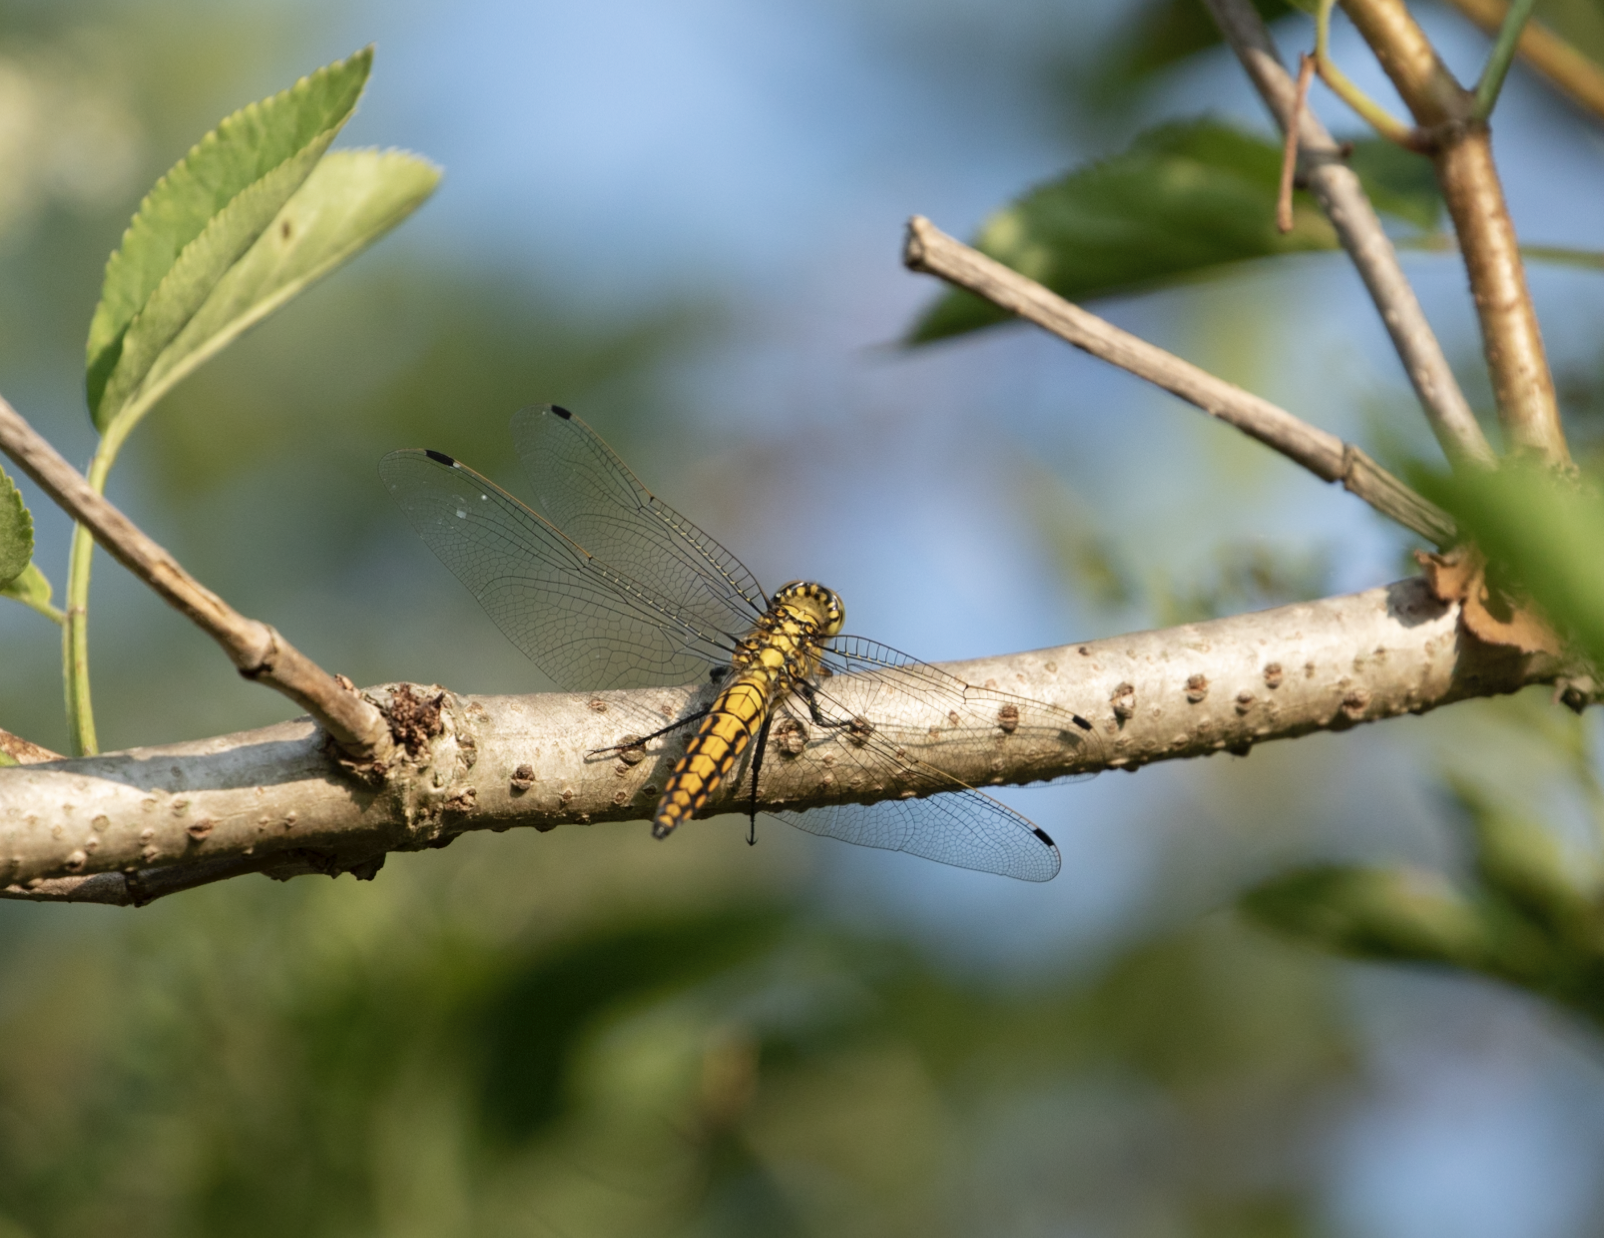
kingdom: Animalia
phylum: Arthropoda
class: Insecta
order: Odonata
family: Libellulidae
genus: Orthetrum
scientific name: Orthetrum cancellatum
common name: Black-tailed skimmer
